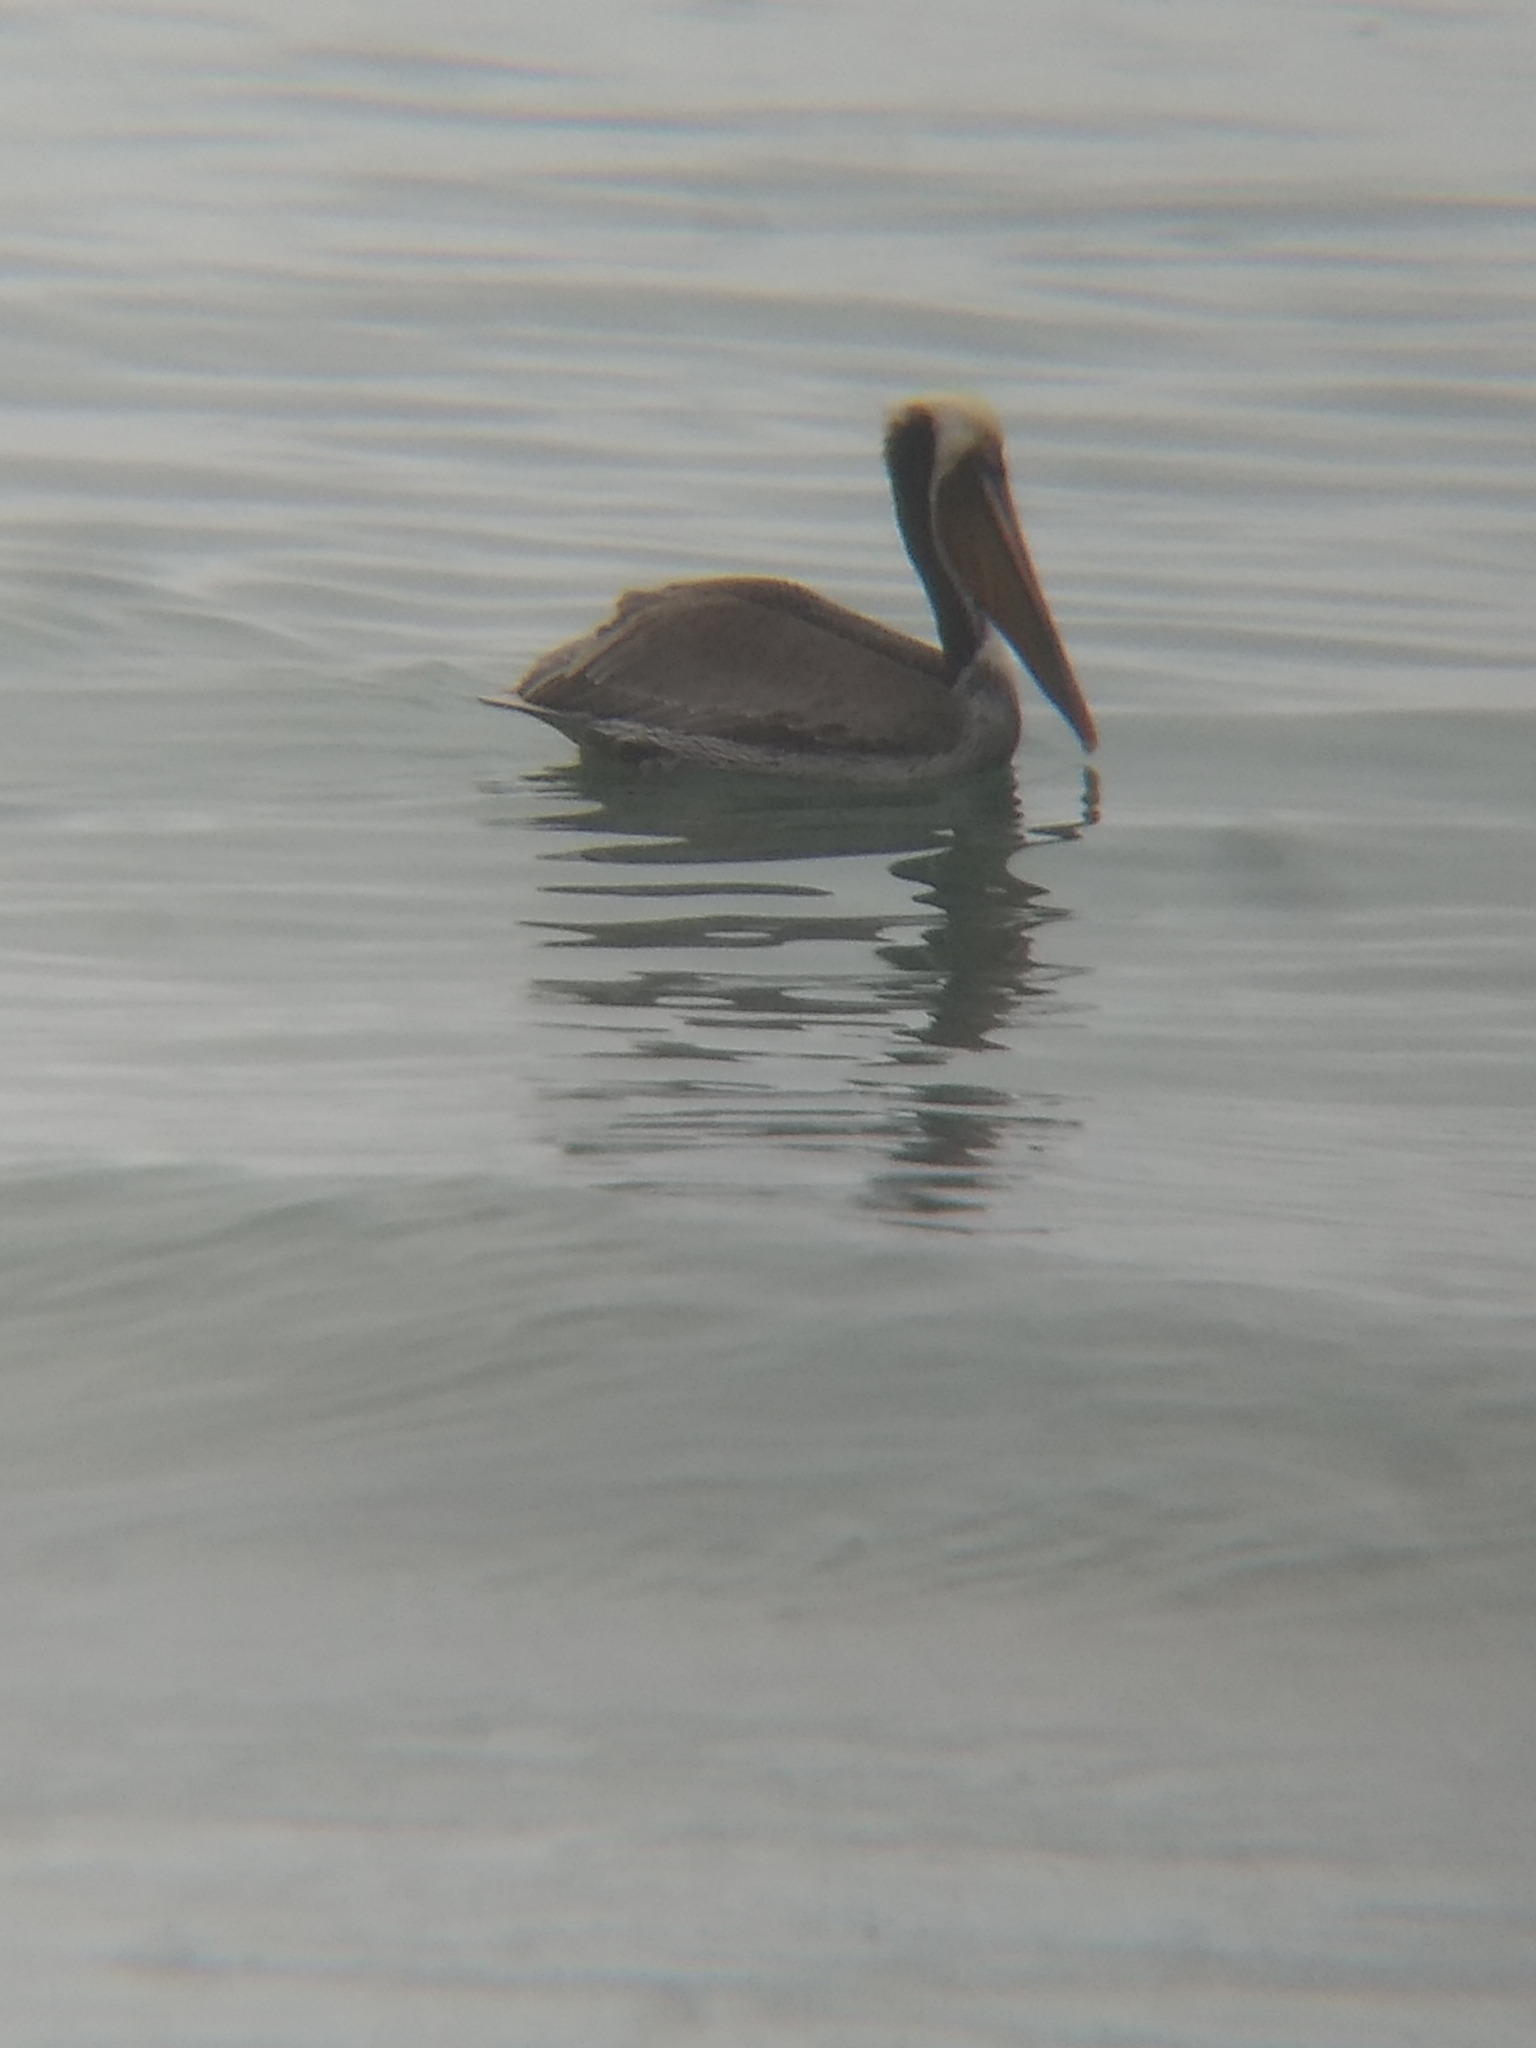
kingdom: Animalia
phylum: Chordata
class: Aves
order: Pelecaniformes
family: Pelecanidae
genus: Pelecanus
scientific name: Pelecanus occidentalis
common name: Brown pelican
